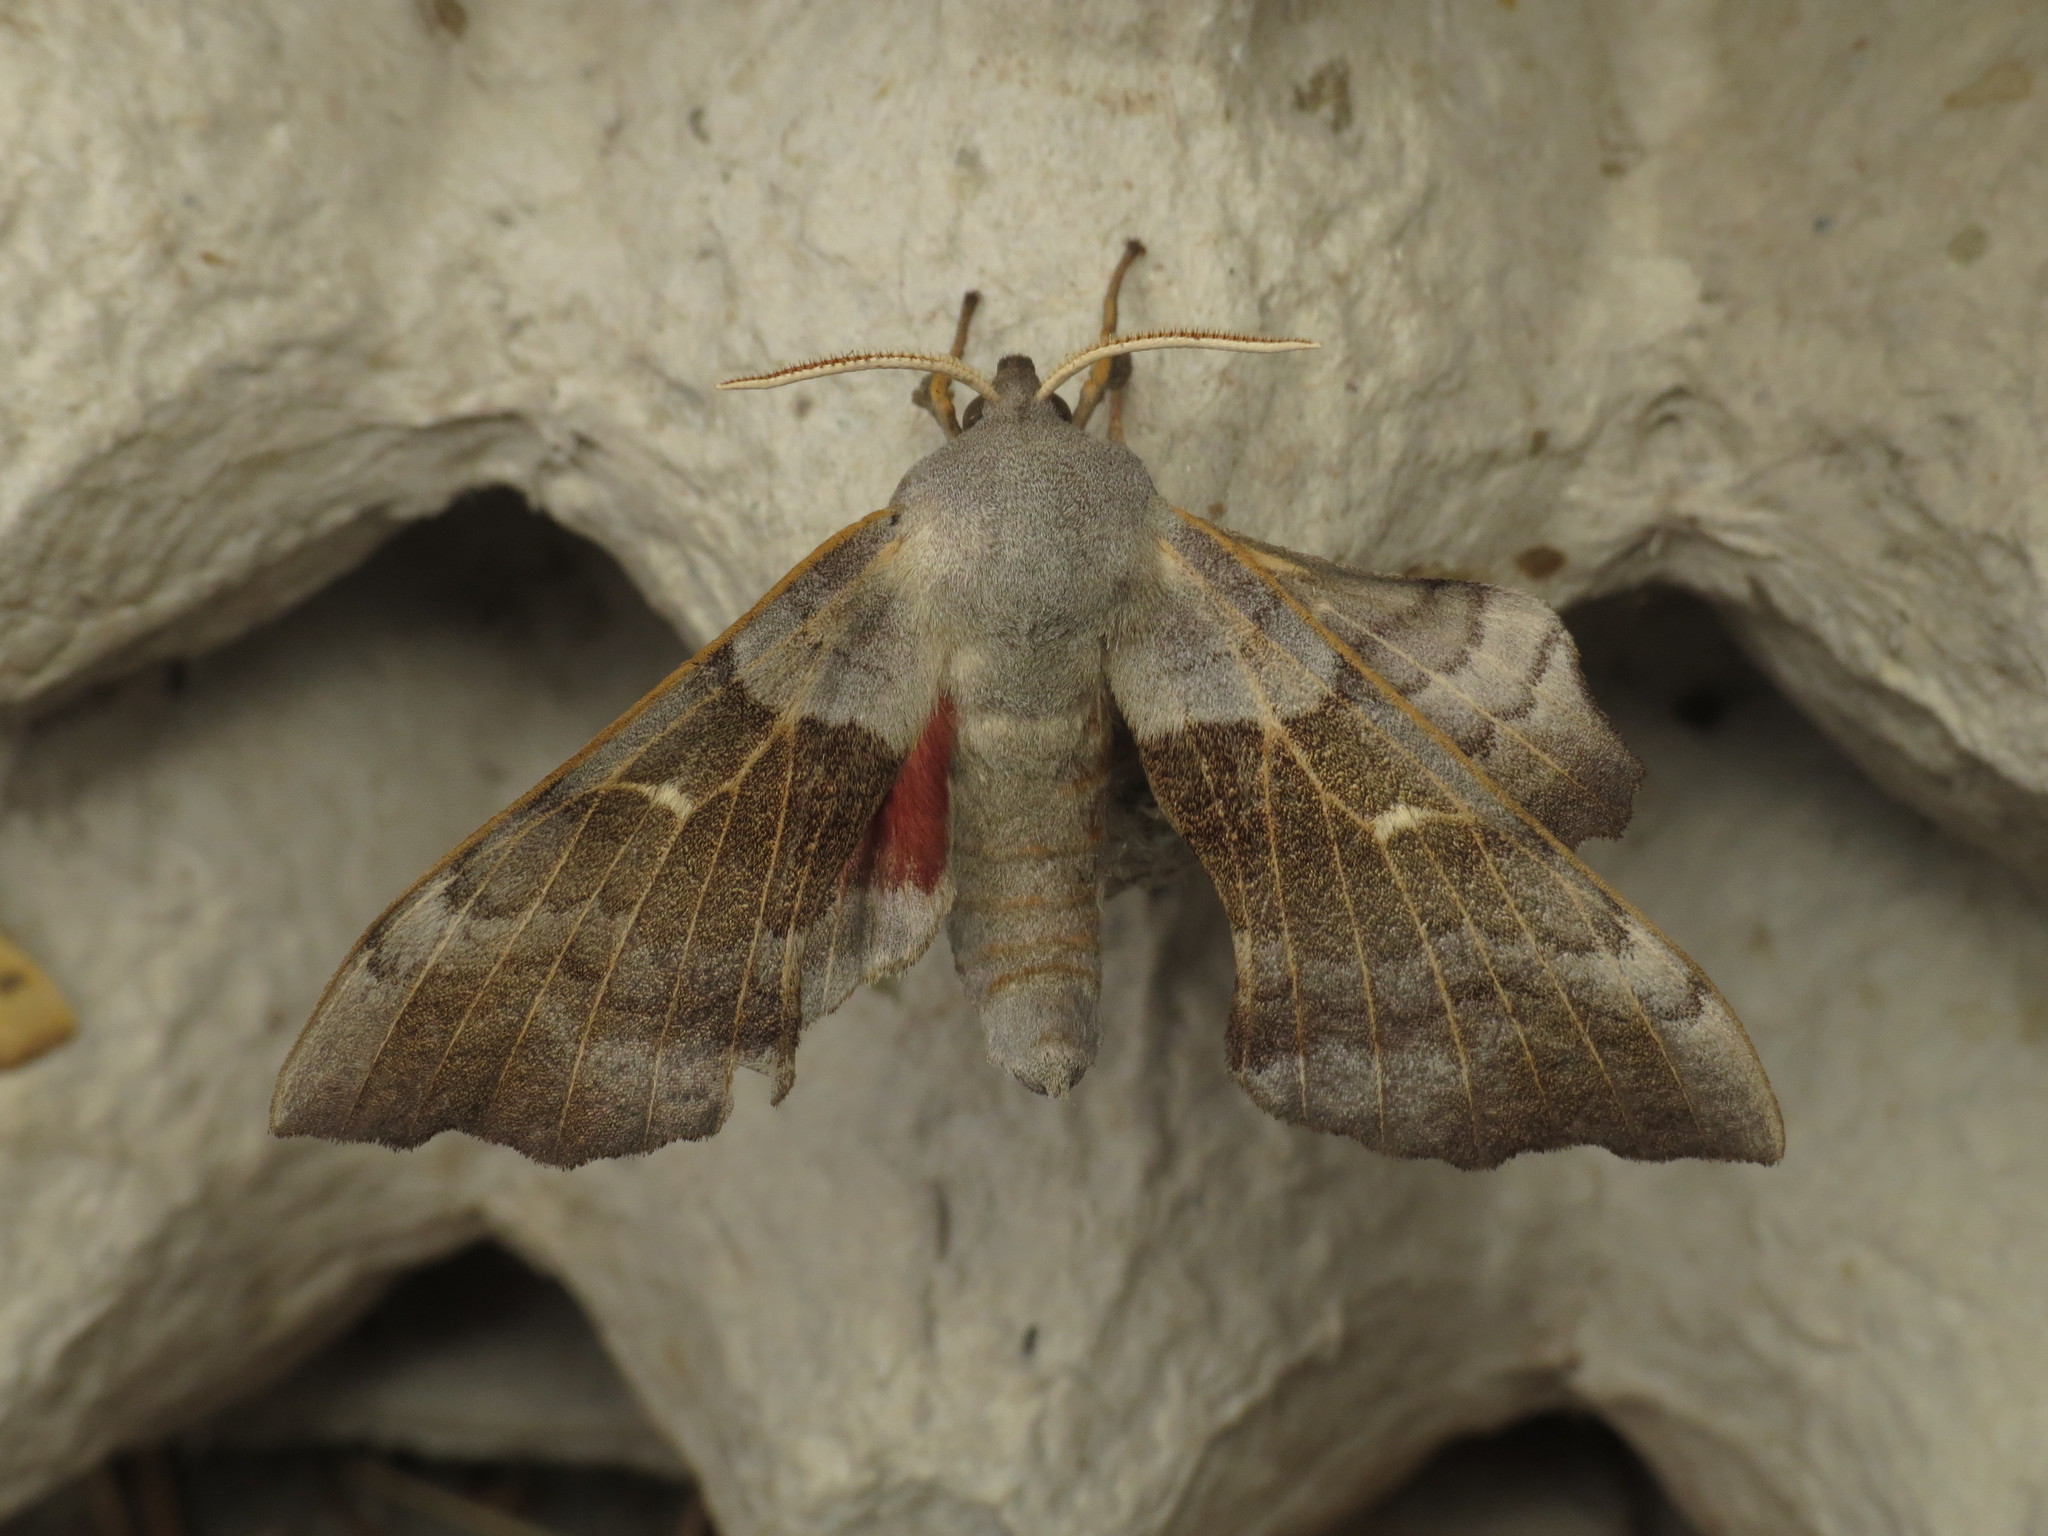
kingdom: Animalia
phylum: Arthropoda
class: Insecta
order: Lepidoptera
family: Sphingidae
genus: Laothoe
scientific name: Laothoe populi
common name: Poplar hawk-moth
